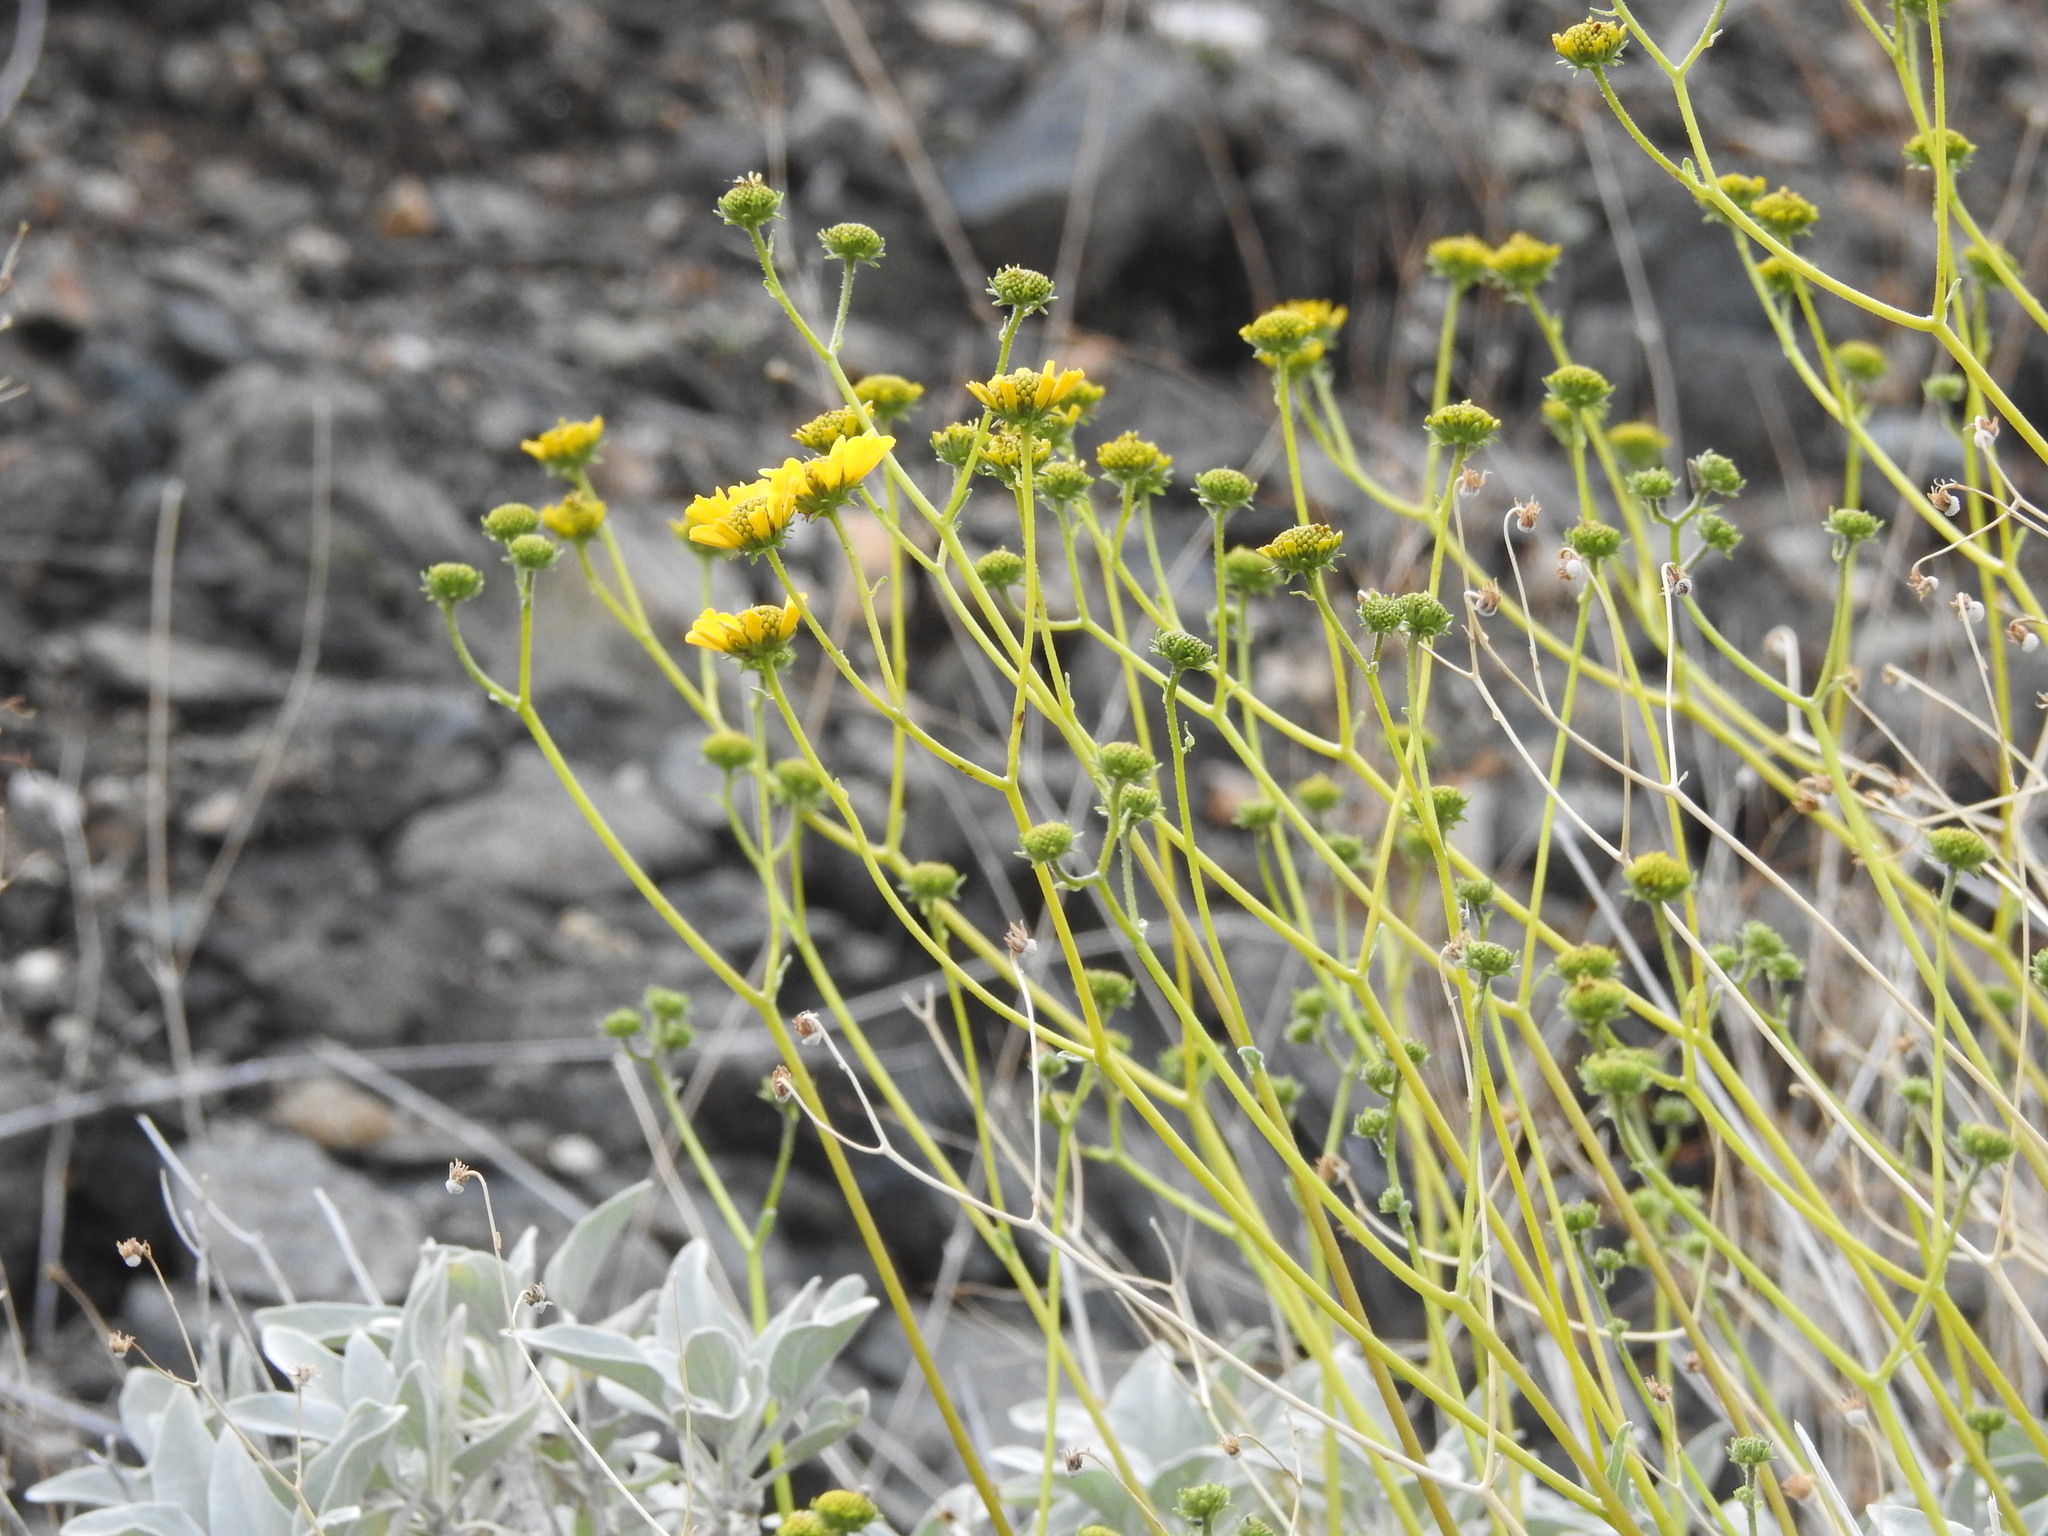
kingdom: Plantae
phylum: Tracheophyta
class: Magnoliopsida
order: Asterales
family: Asteraceae
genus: Encelia
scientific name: Encelia farinosa
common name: Brittlebush
